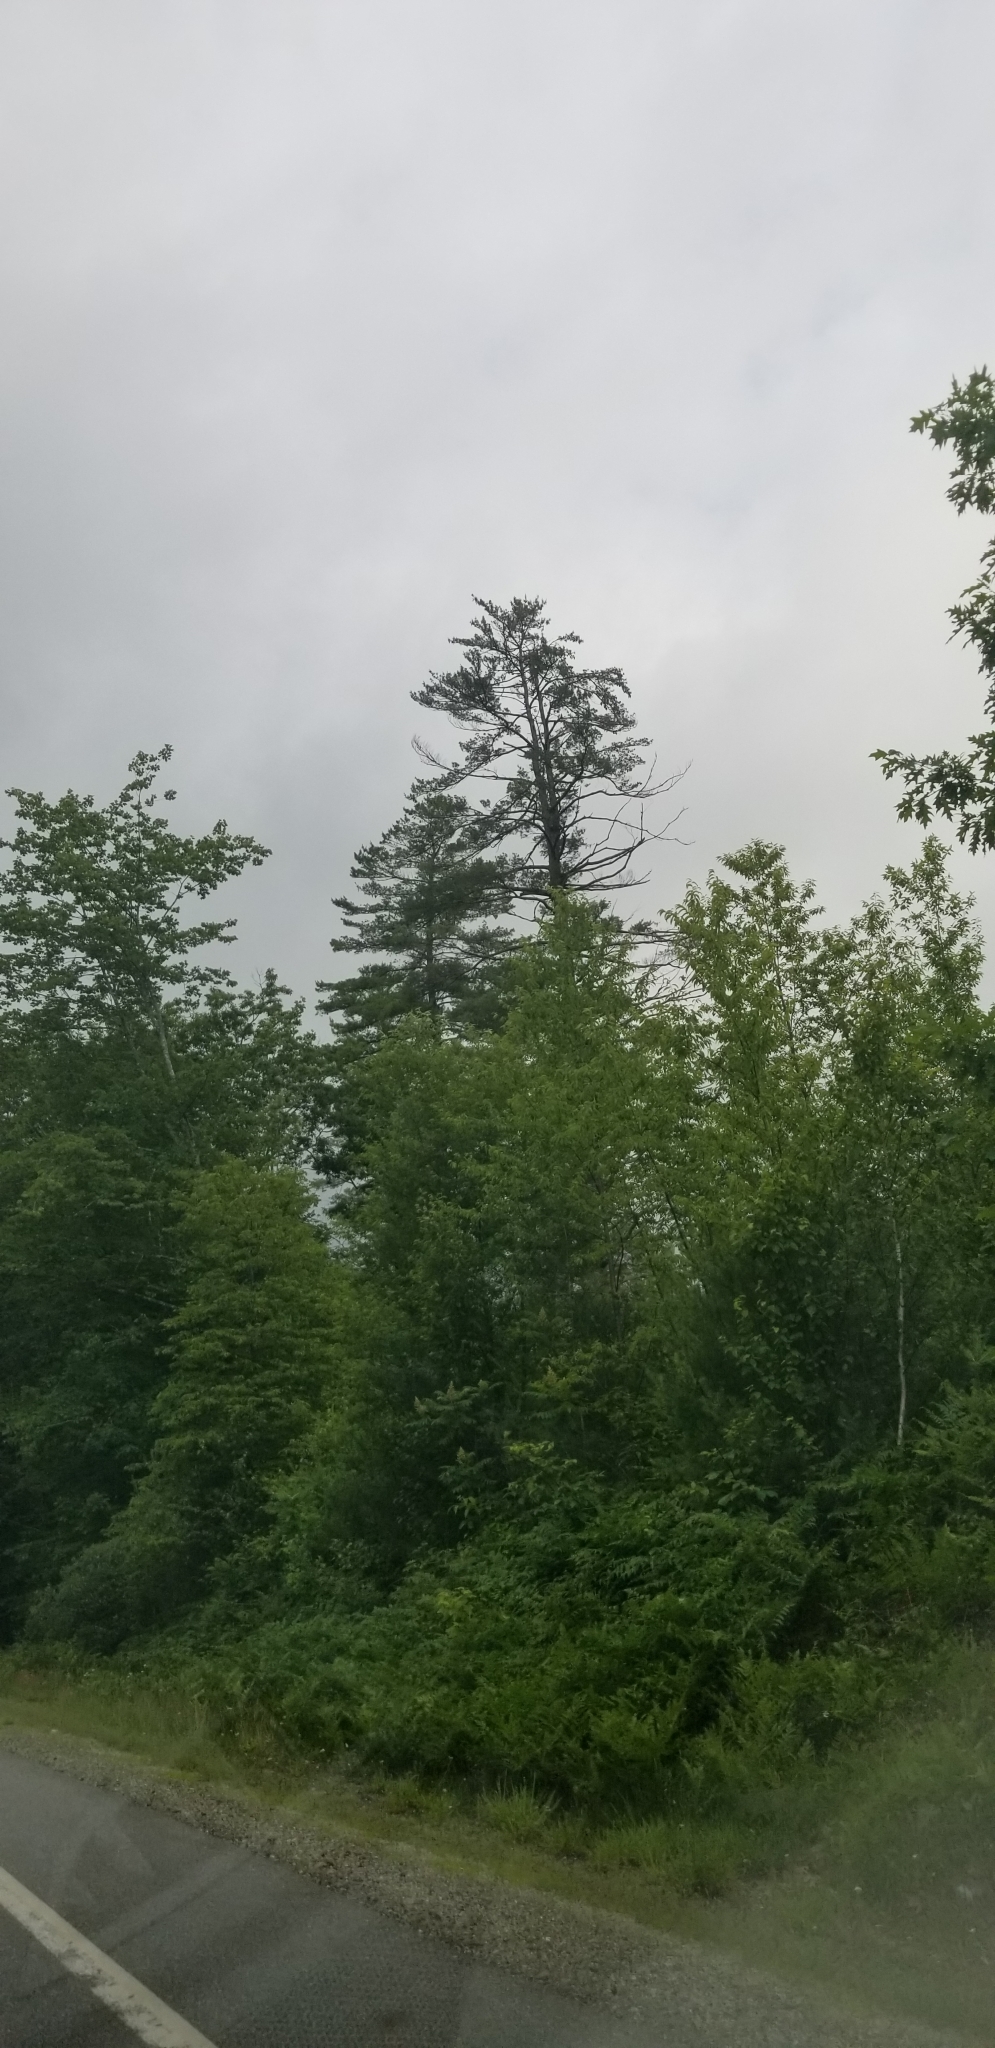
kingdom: Plantae
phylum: Tracheophyta
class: Pinopsida
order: Pinales
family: Pinaceae
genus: Pinus
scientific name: Pinus strobus
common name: Weymouth pine
